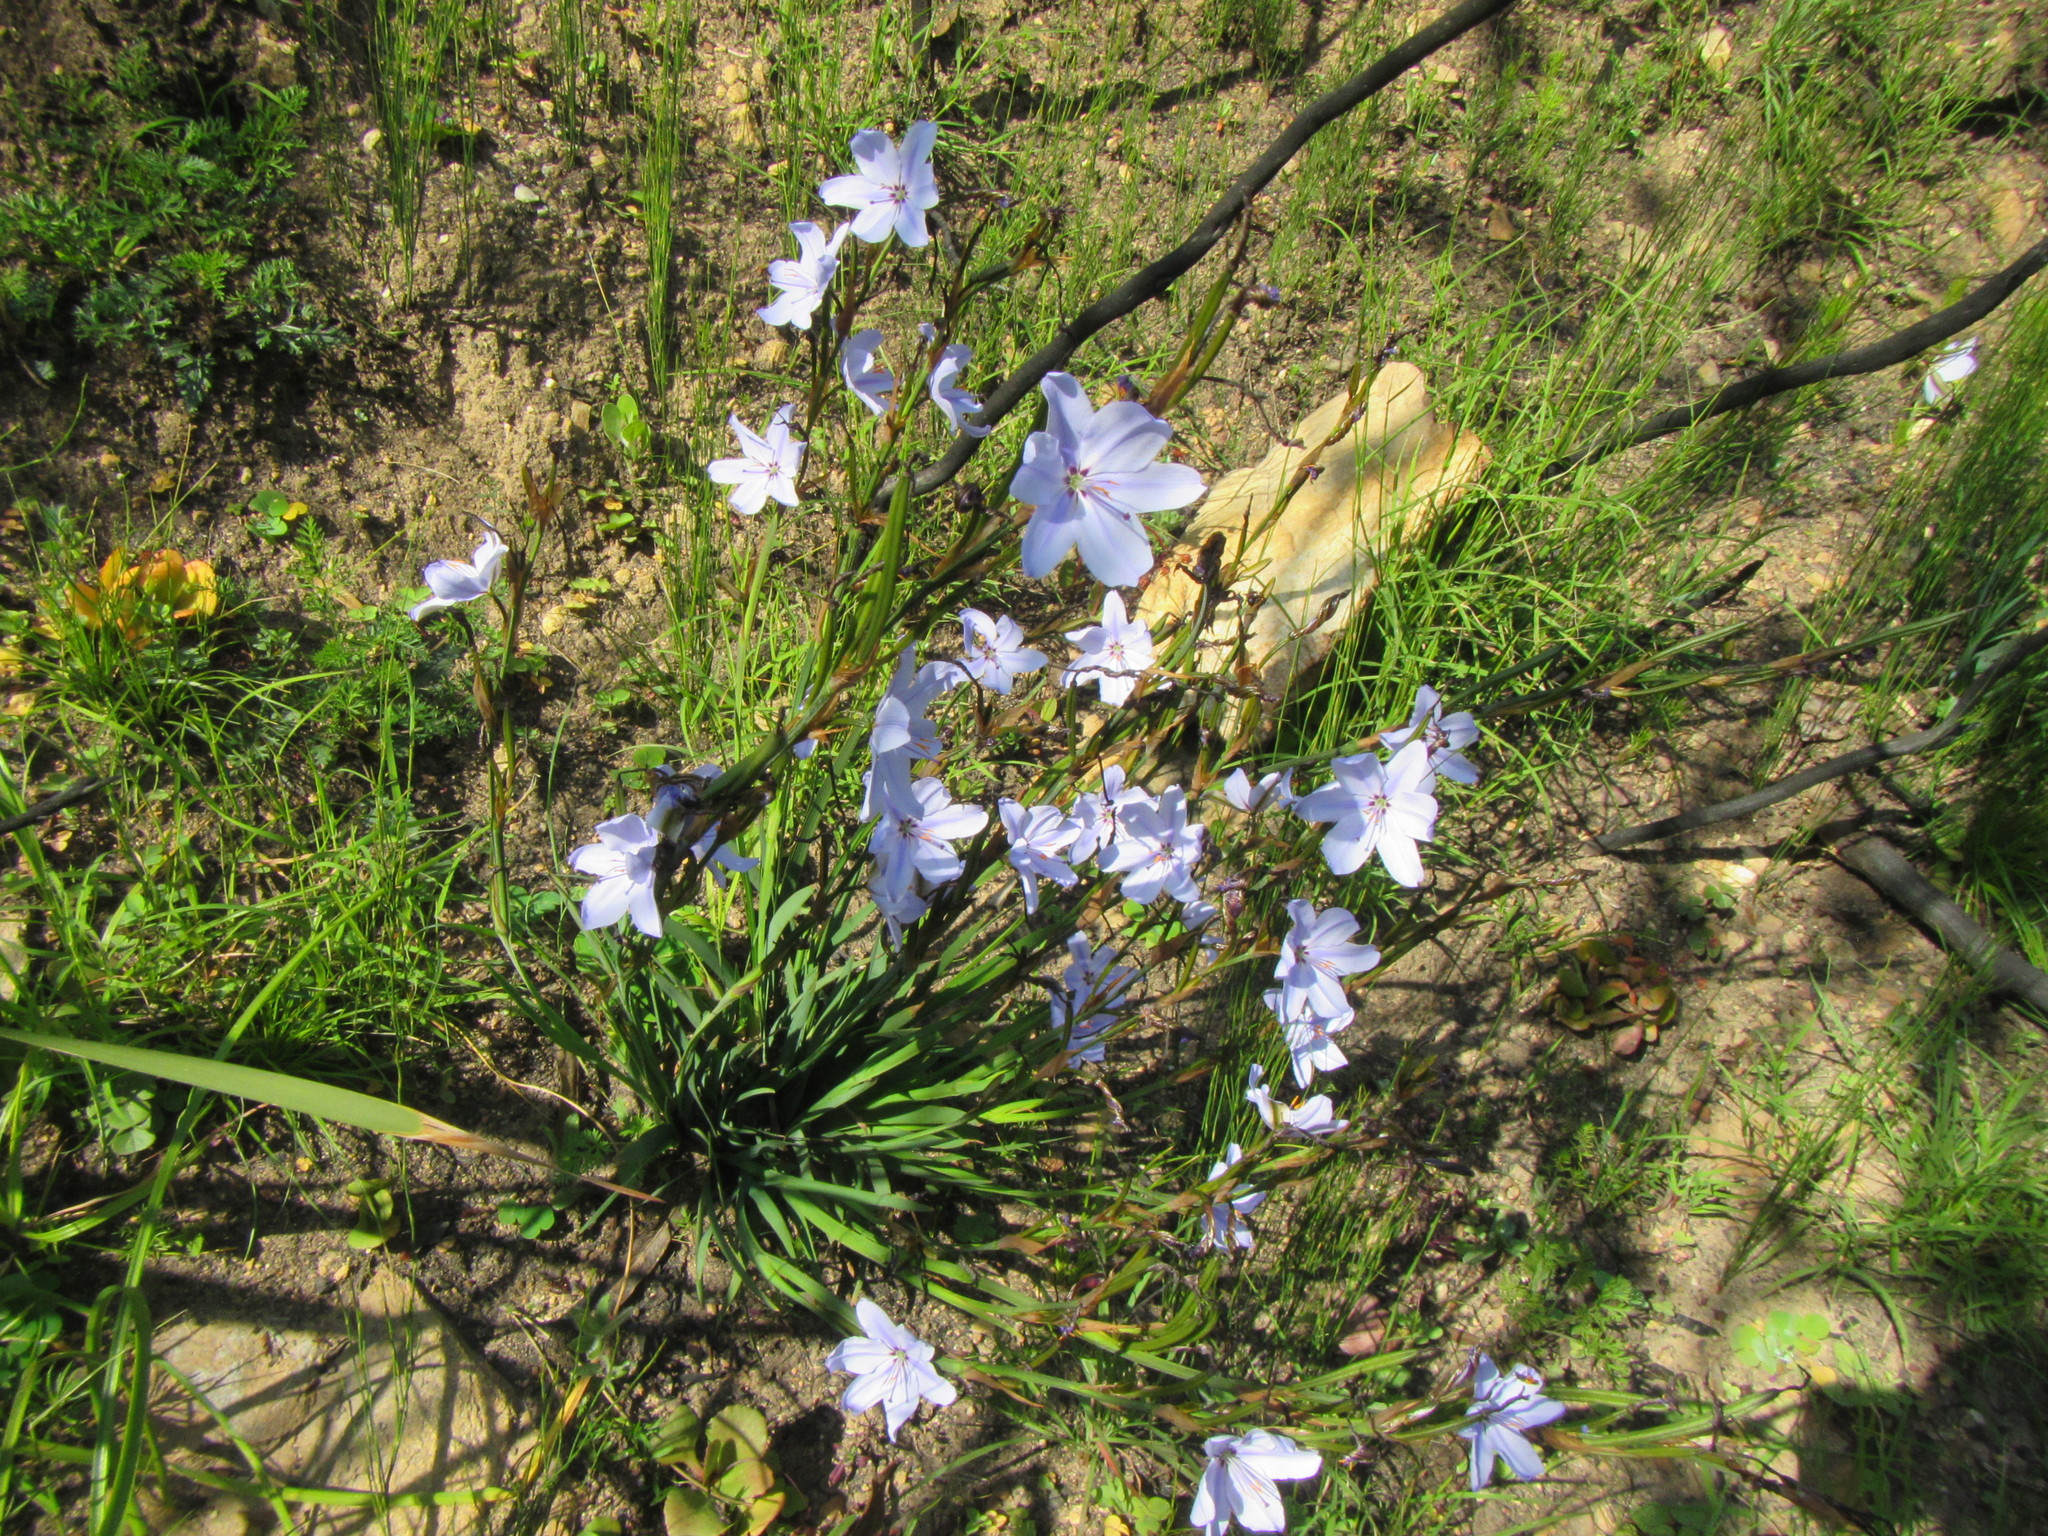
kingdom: Plantae
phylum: Tracheophyta
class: Liliopsida
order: Asparagales
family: Iridaceae
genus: Aristea
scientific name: Aristea spiralis
